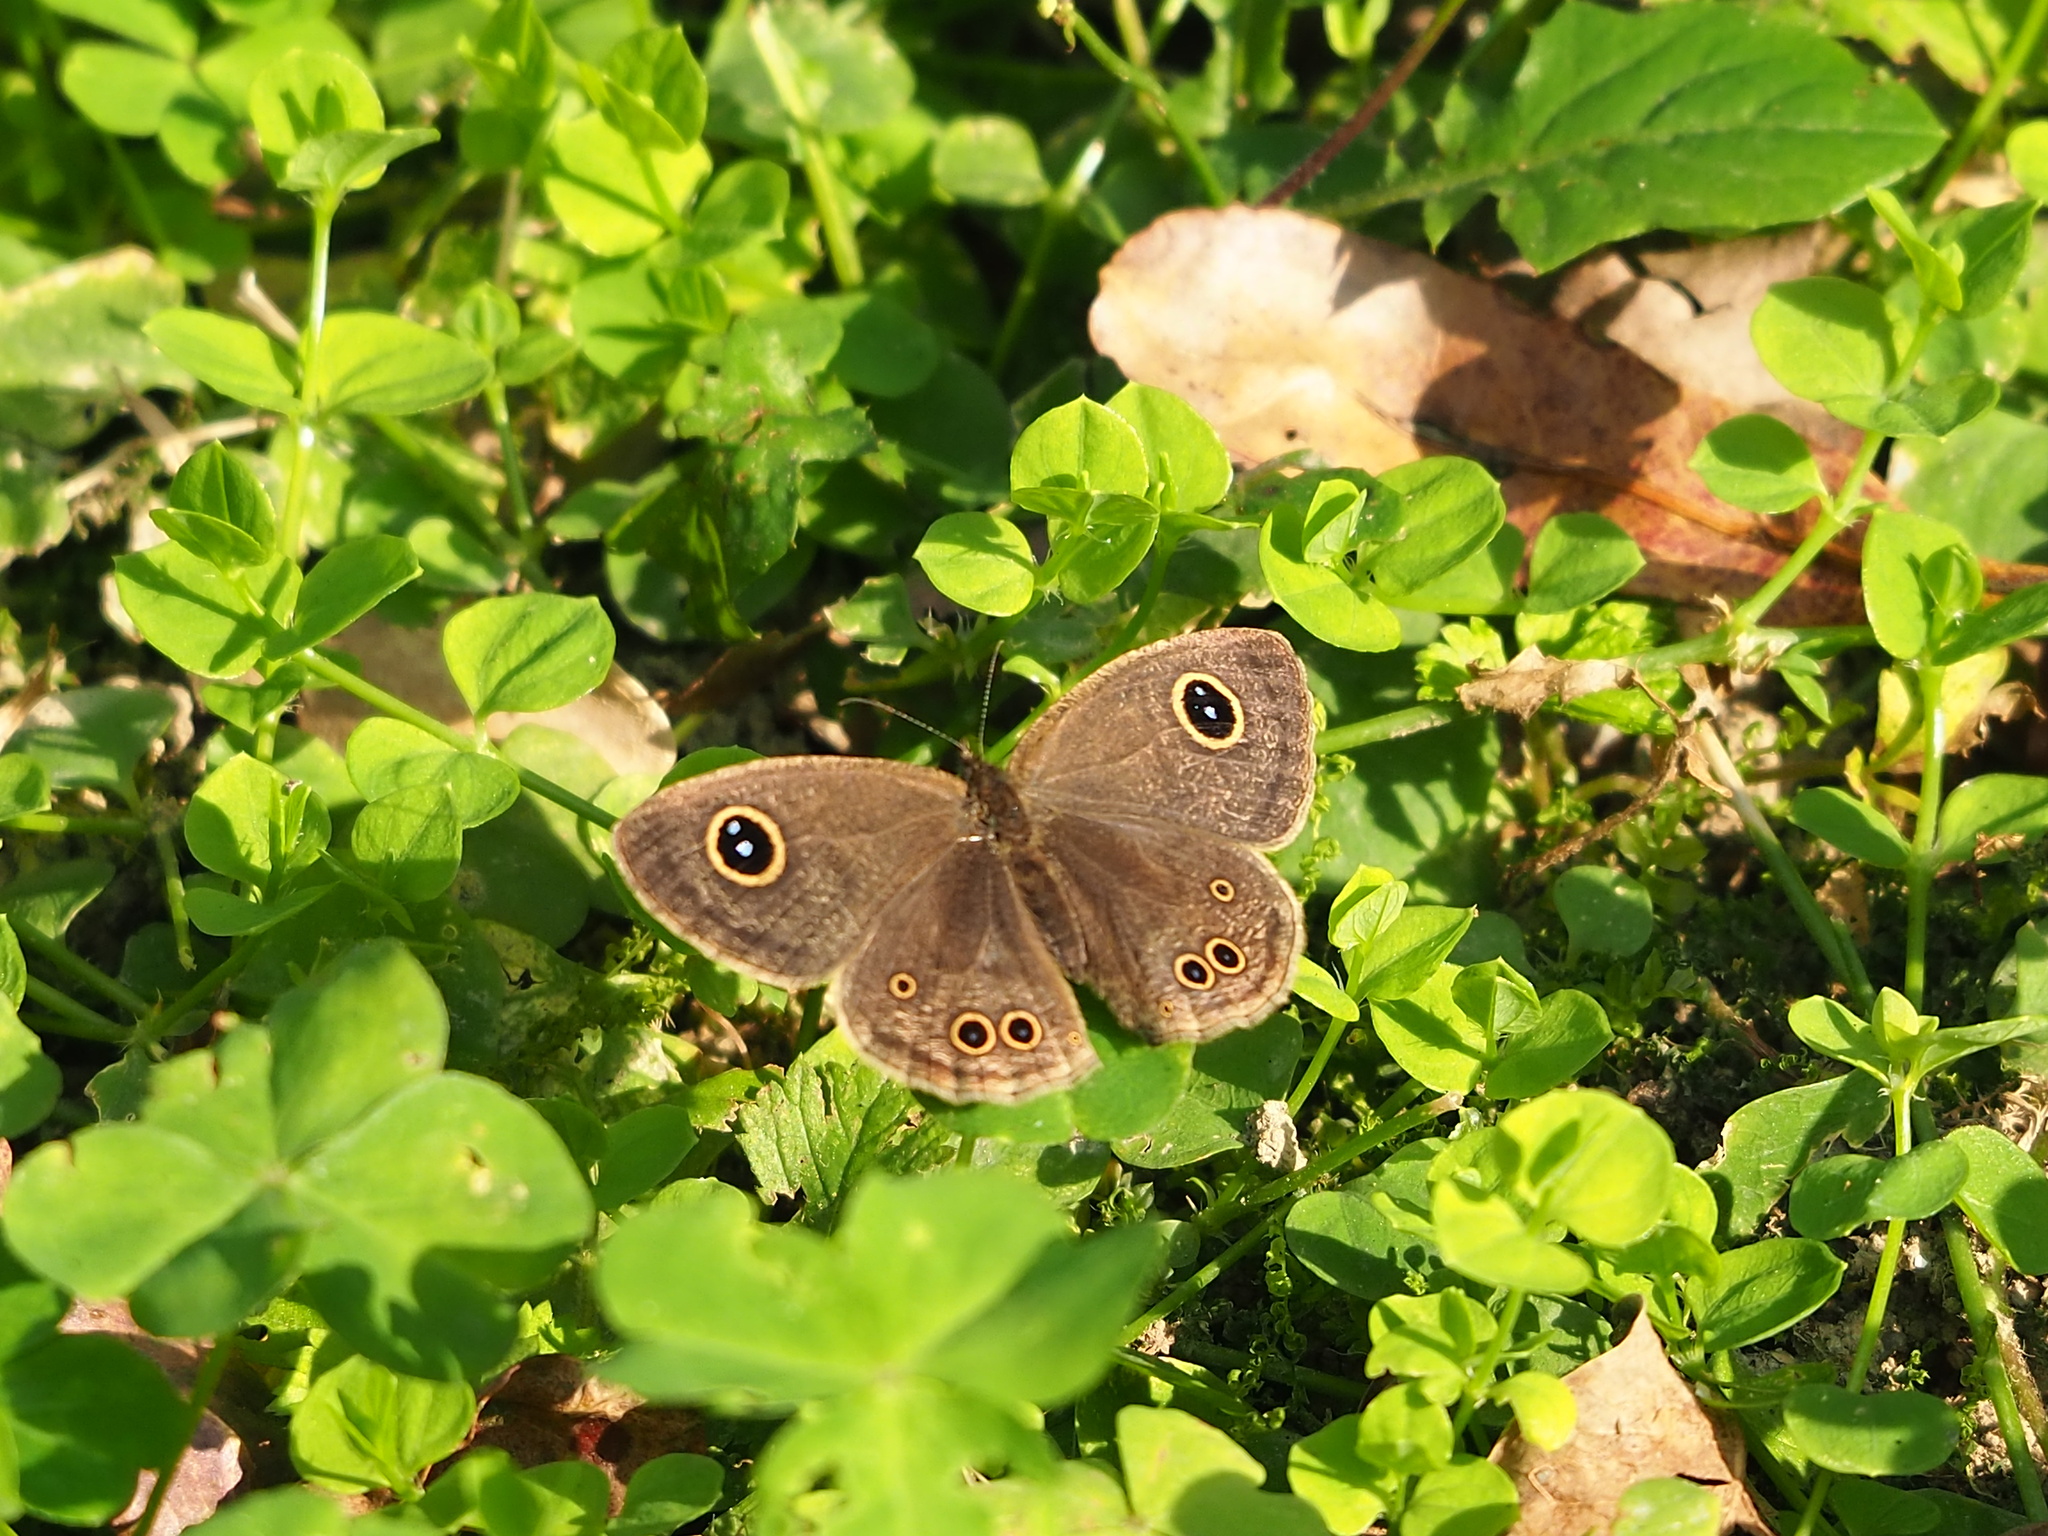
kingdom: Animalia
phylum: Arthropoda
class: Insecta
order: Lepidoptera
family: Nymphalidae
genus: Ypthima
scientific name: Ypthima baldus
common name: Common five-ring
